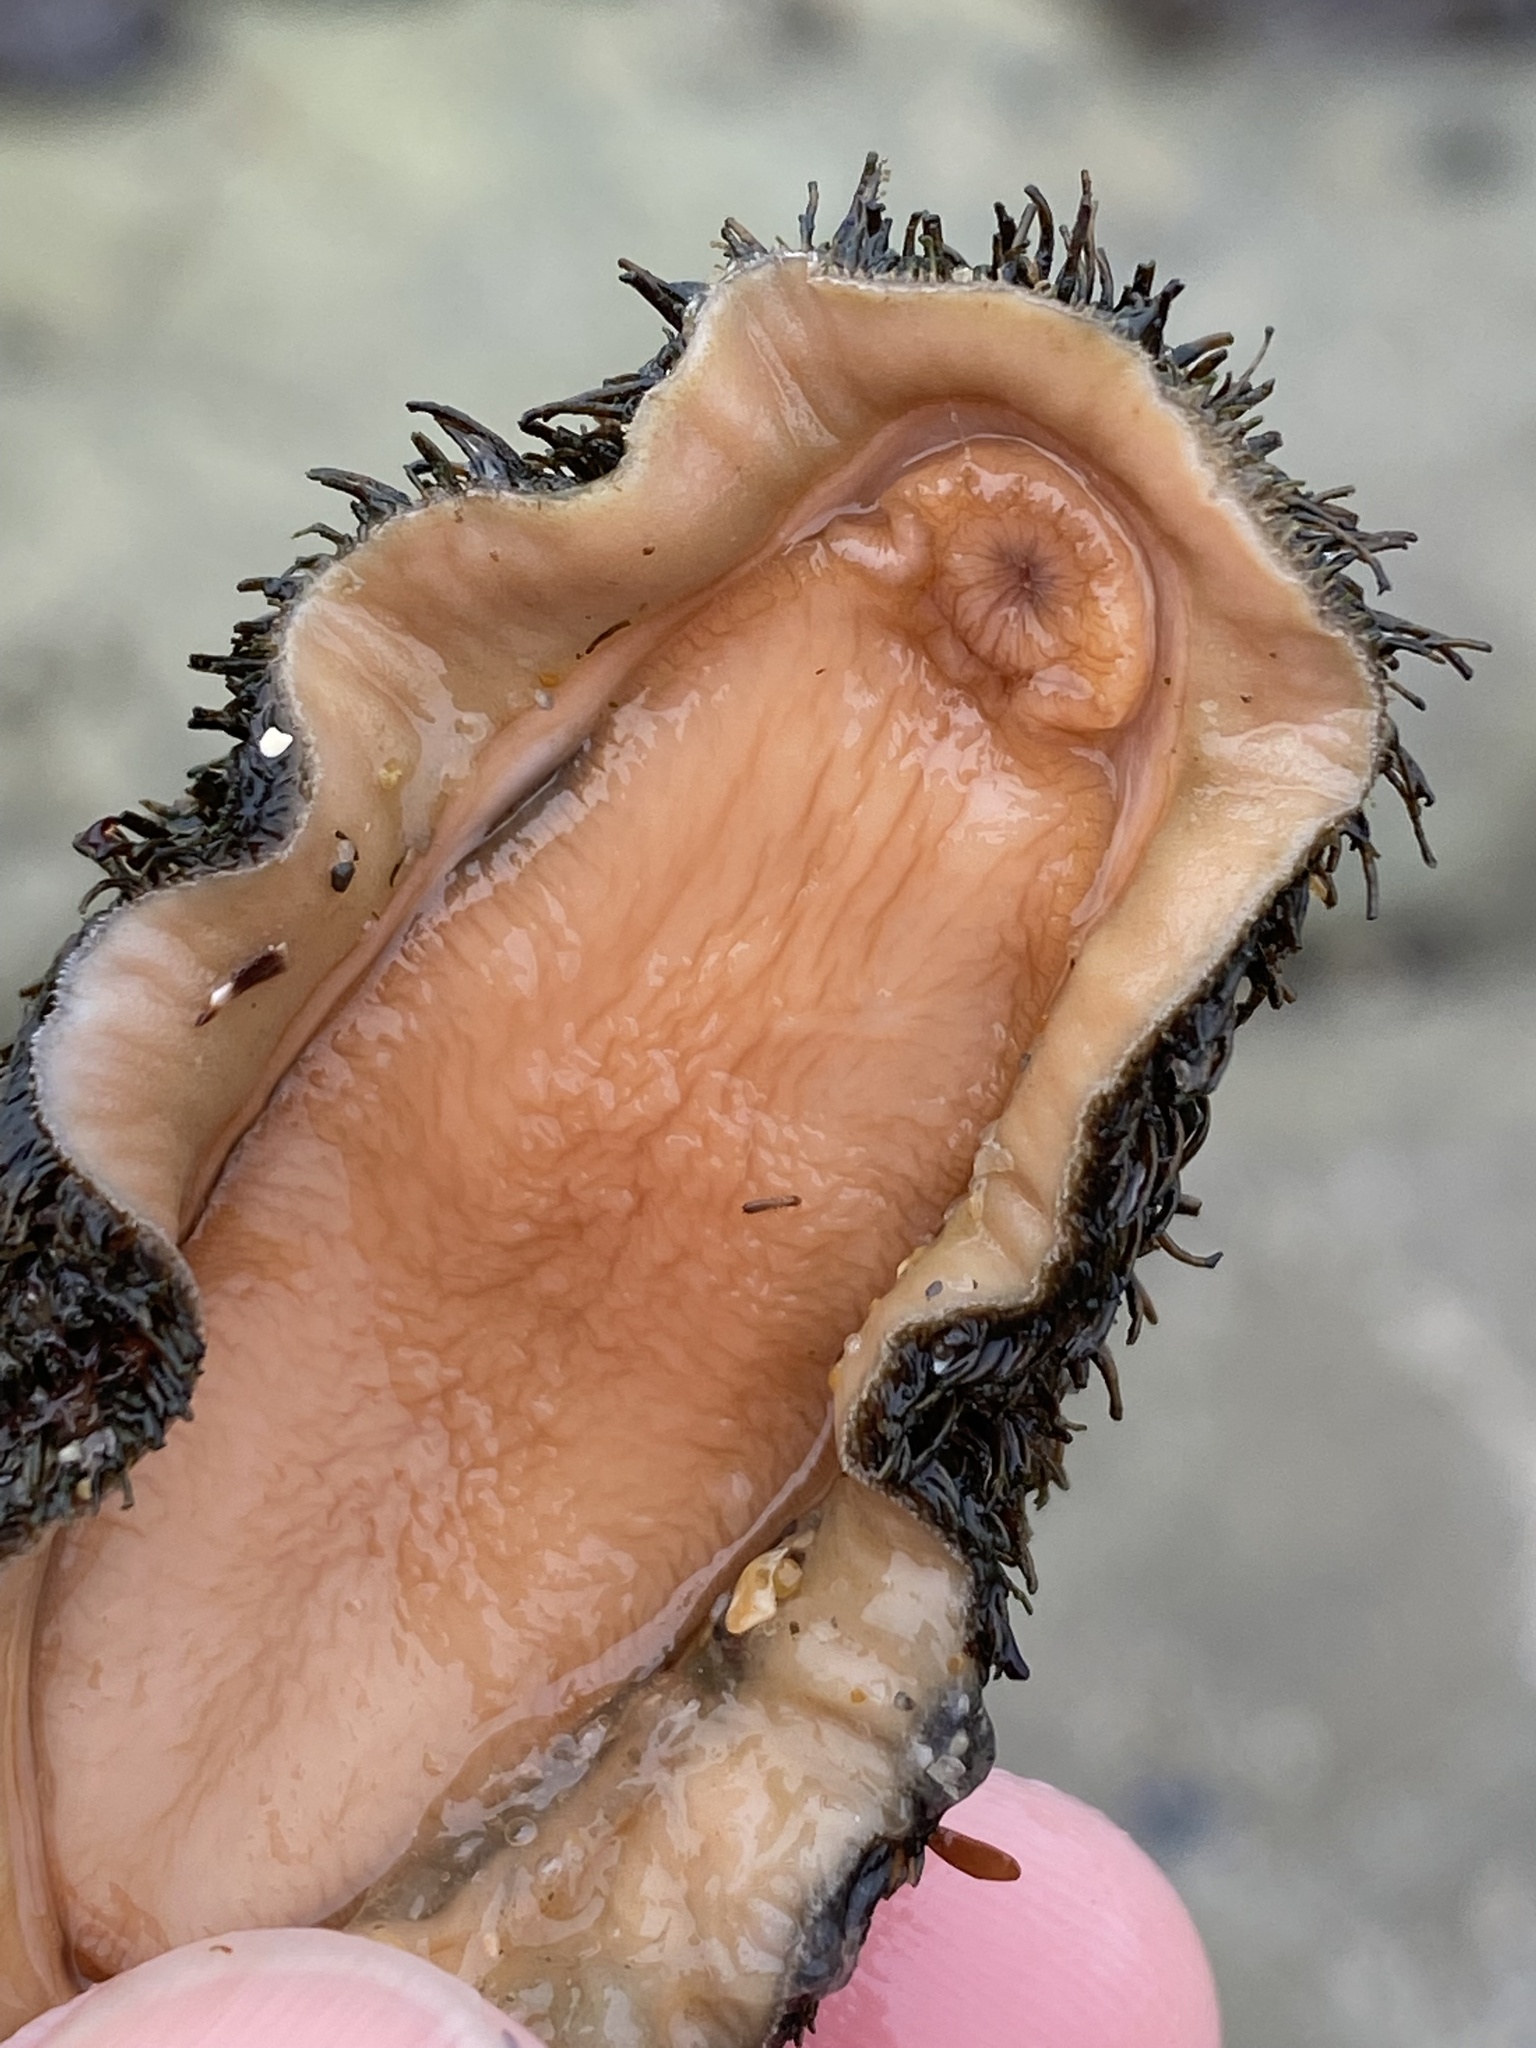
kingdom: Animalia
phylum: Mollusca
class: Polyplacophora
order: Chitonida
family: Mopaliidae
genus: Mopalia
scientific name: Mopalia muscosa
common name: Mossy chiton
